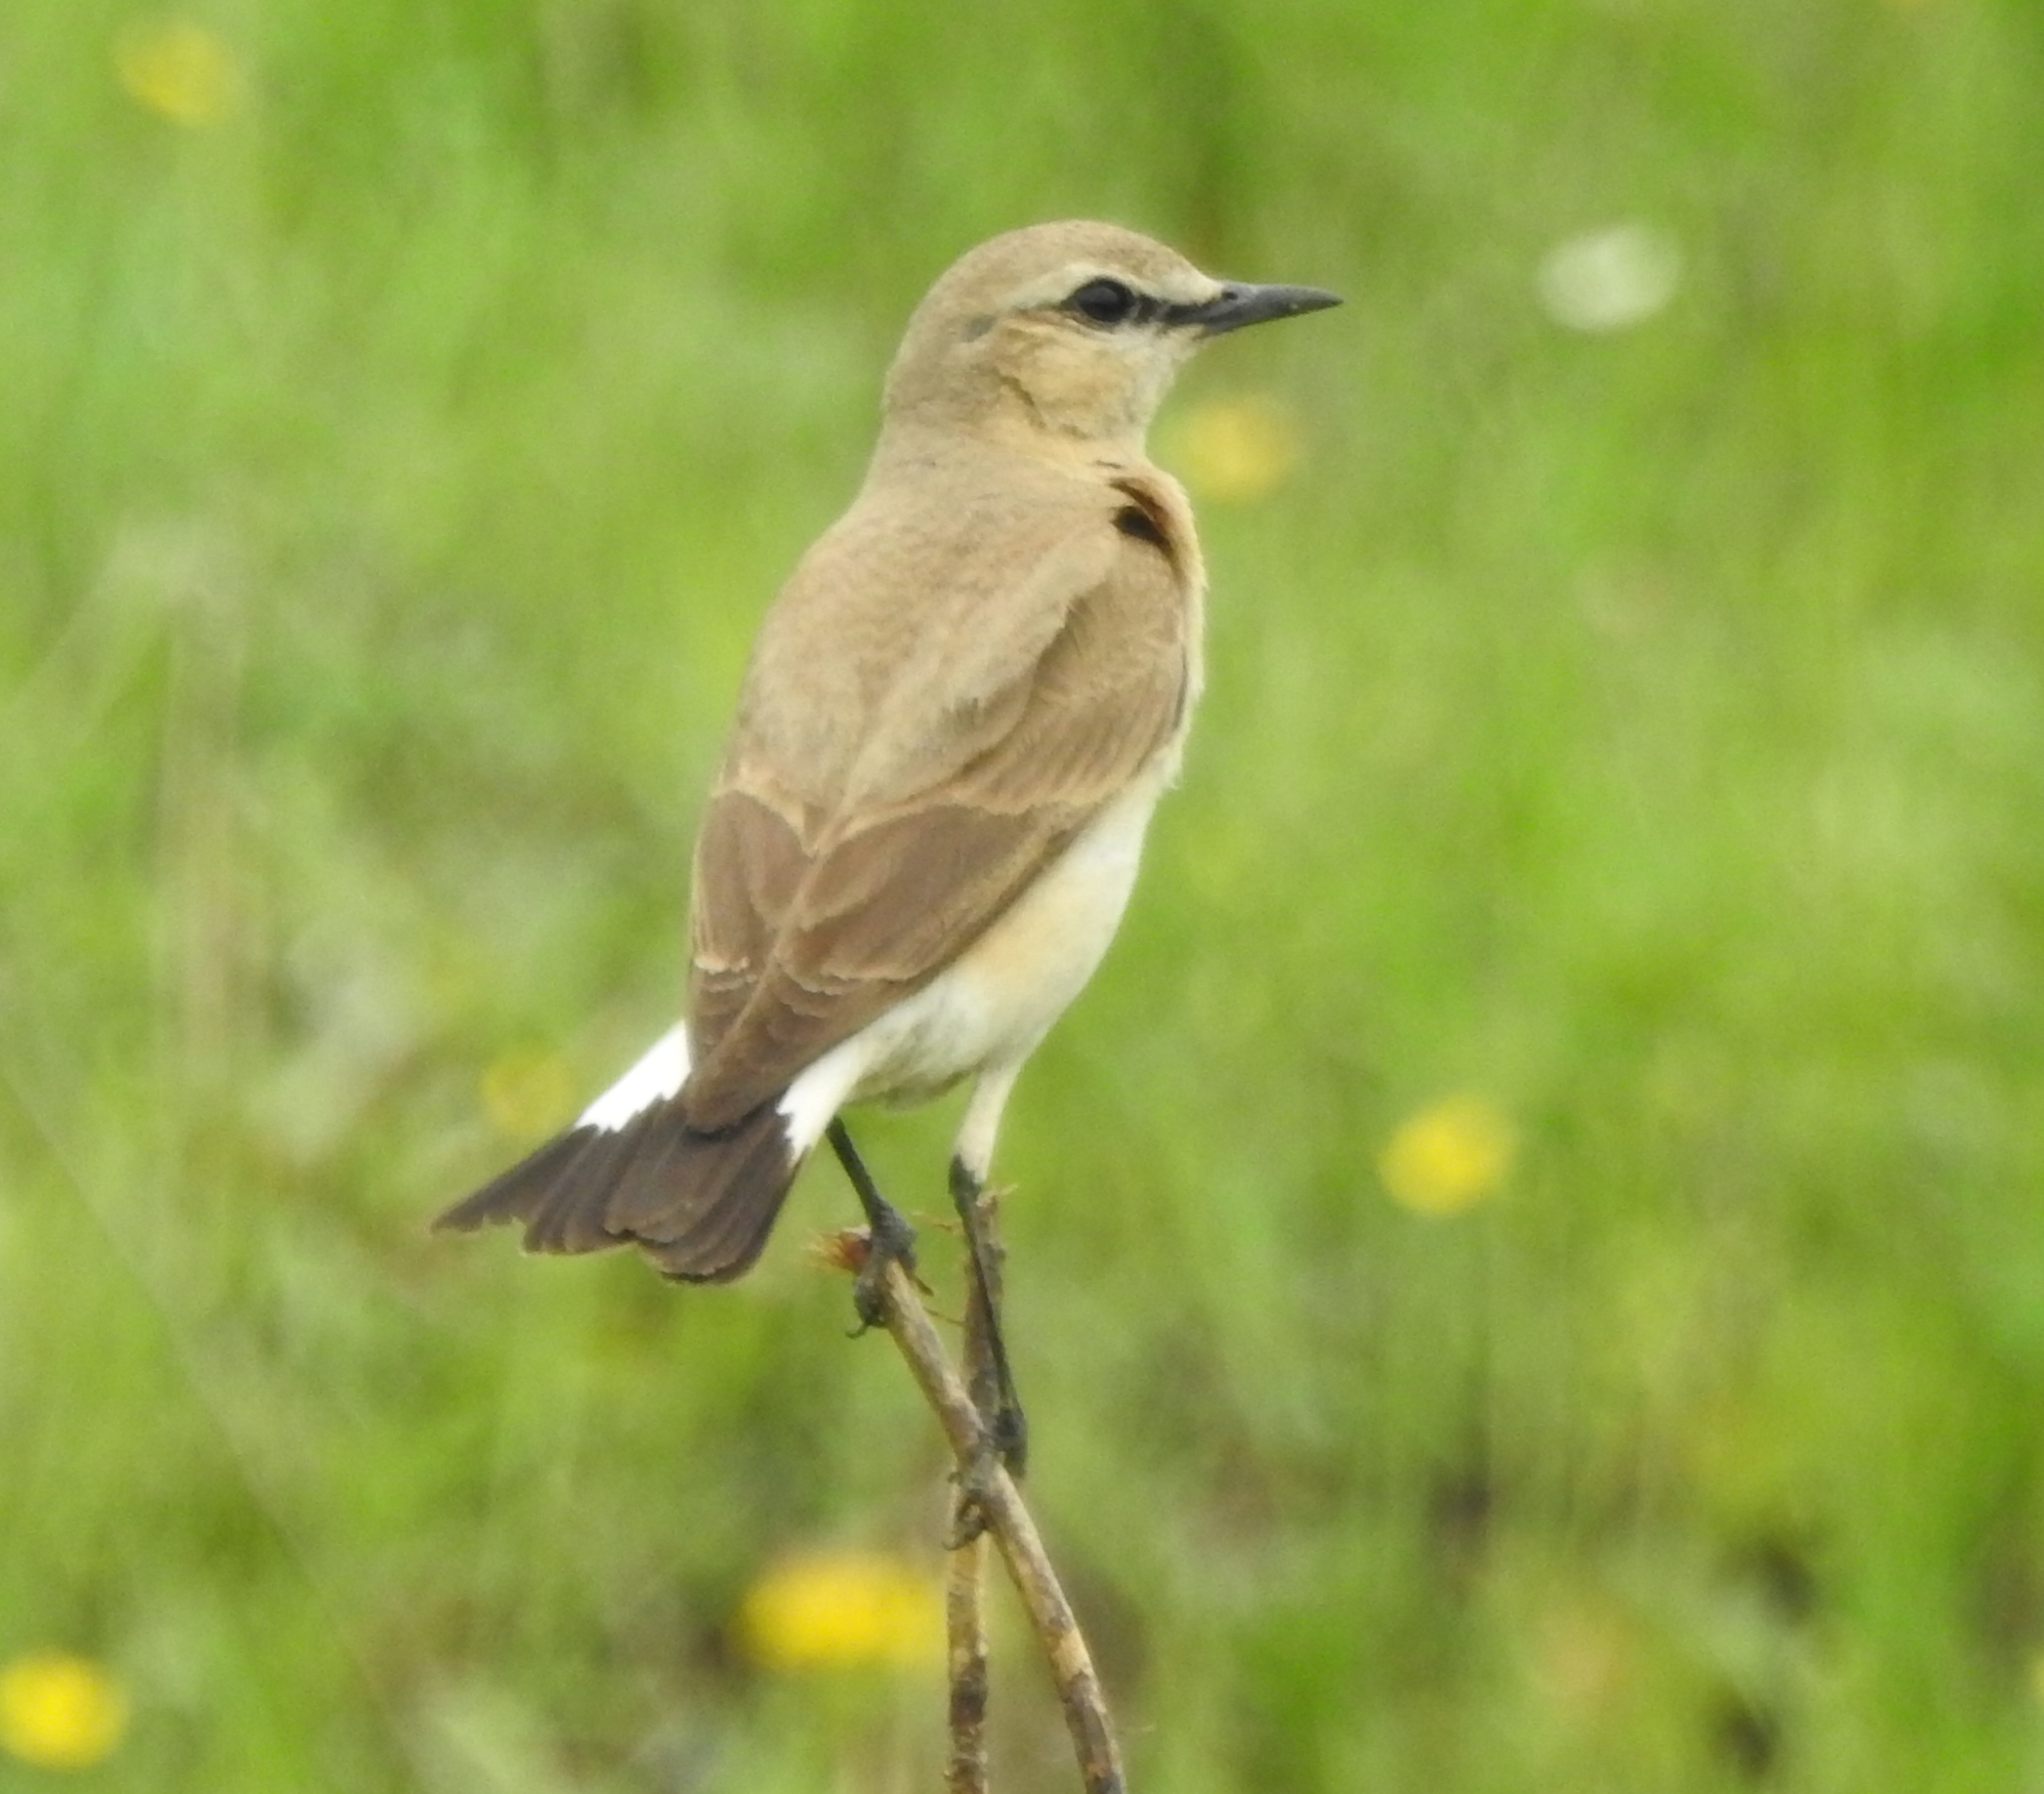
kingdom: Animalia
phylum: Chordata
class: Aves
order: Passeriformes
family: Muscicapidae
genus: Oenanthe
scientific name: Oenanthe isabellina
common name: Isabelline wheatear
